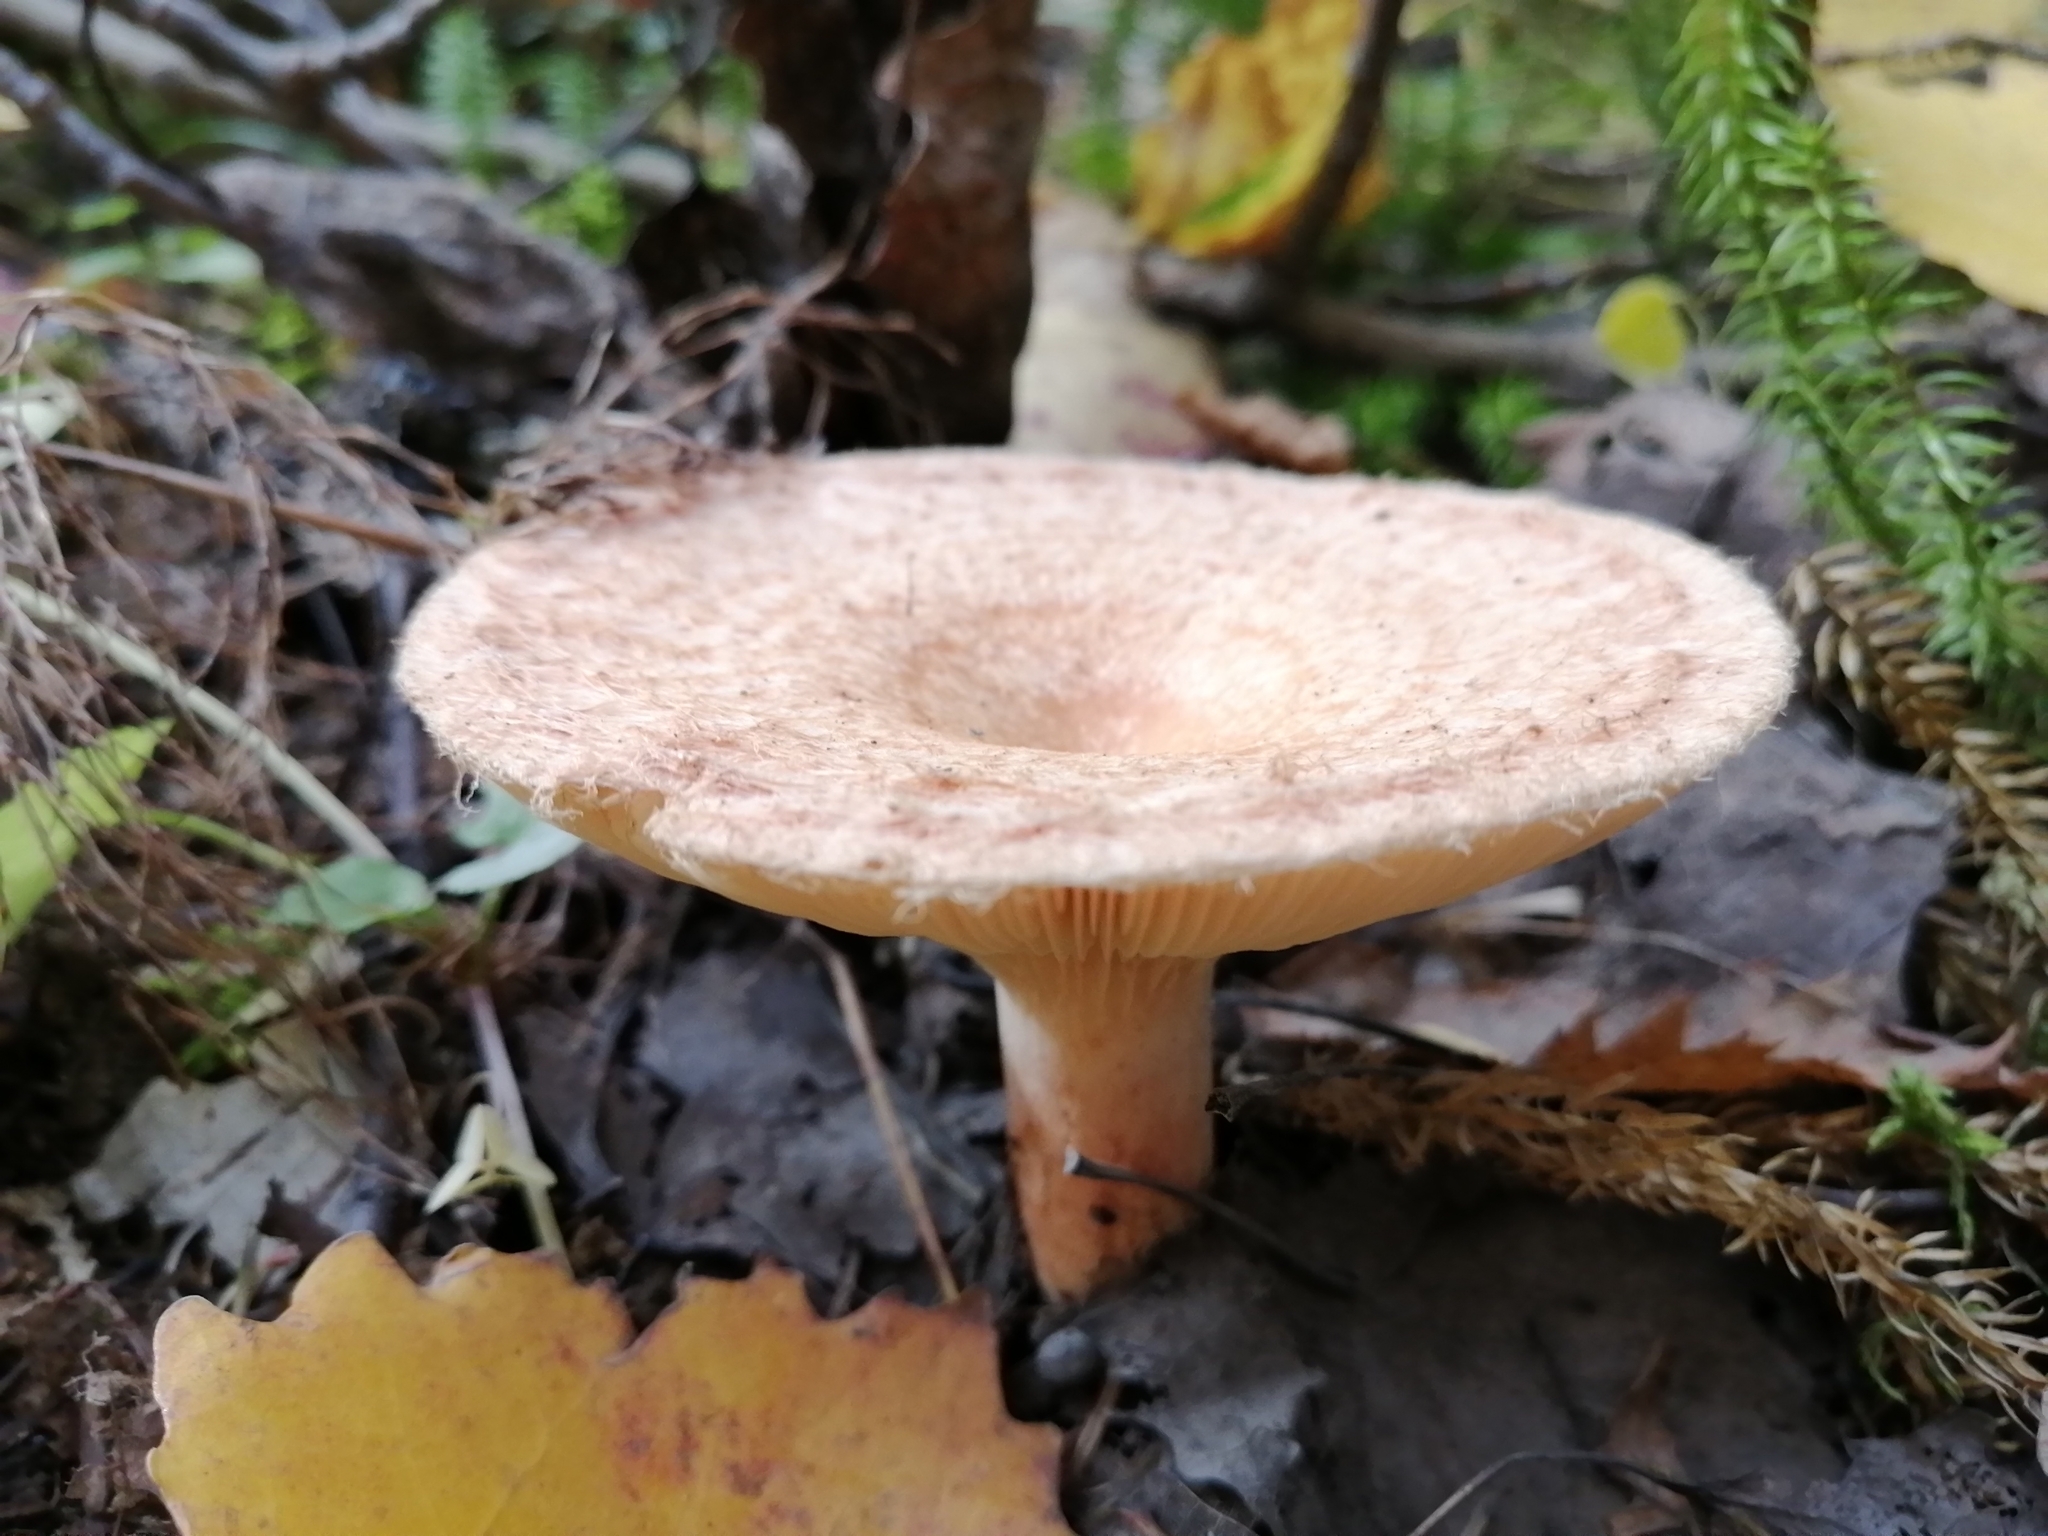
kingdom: Fungi
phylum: Basidiomycota
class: Agaricomycetes
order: Russulales
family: Russulaceae
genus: Lactarius
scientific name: Lactarius torminosus
